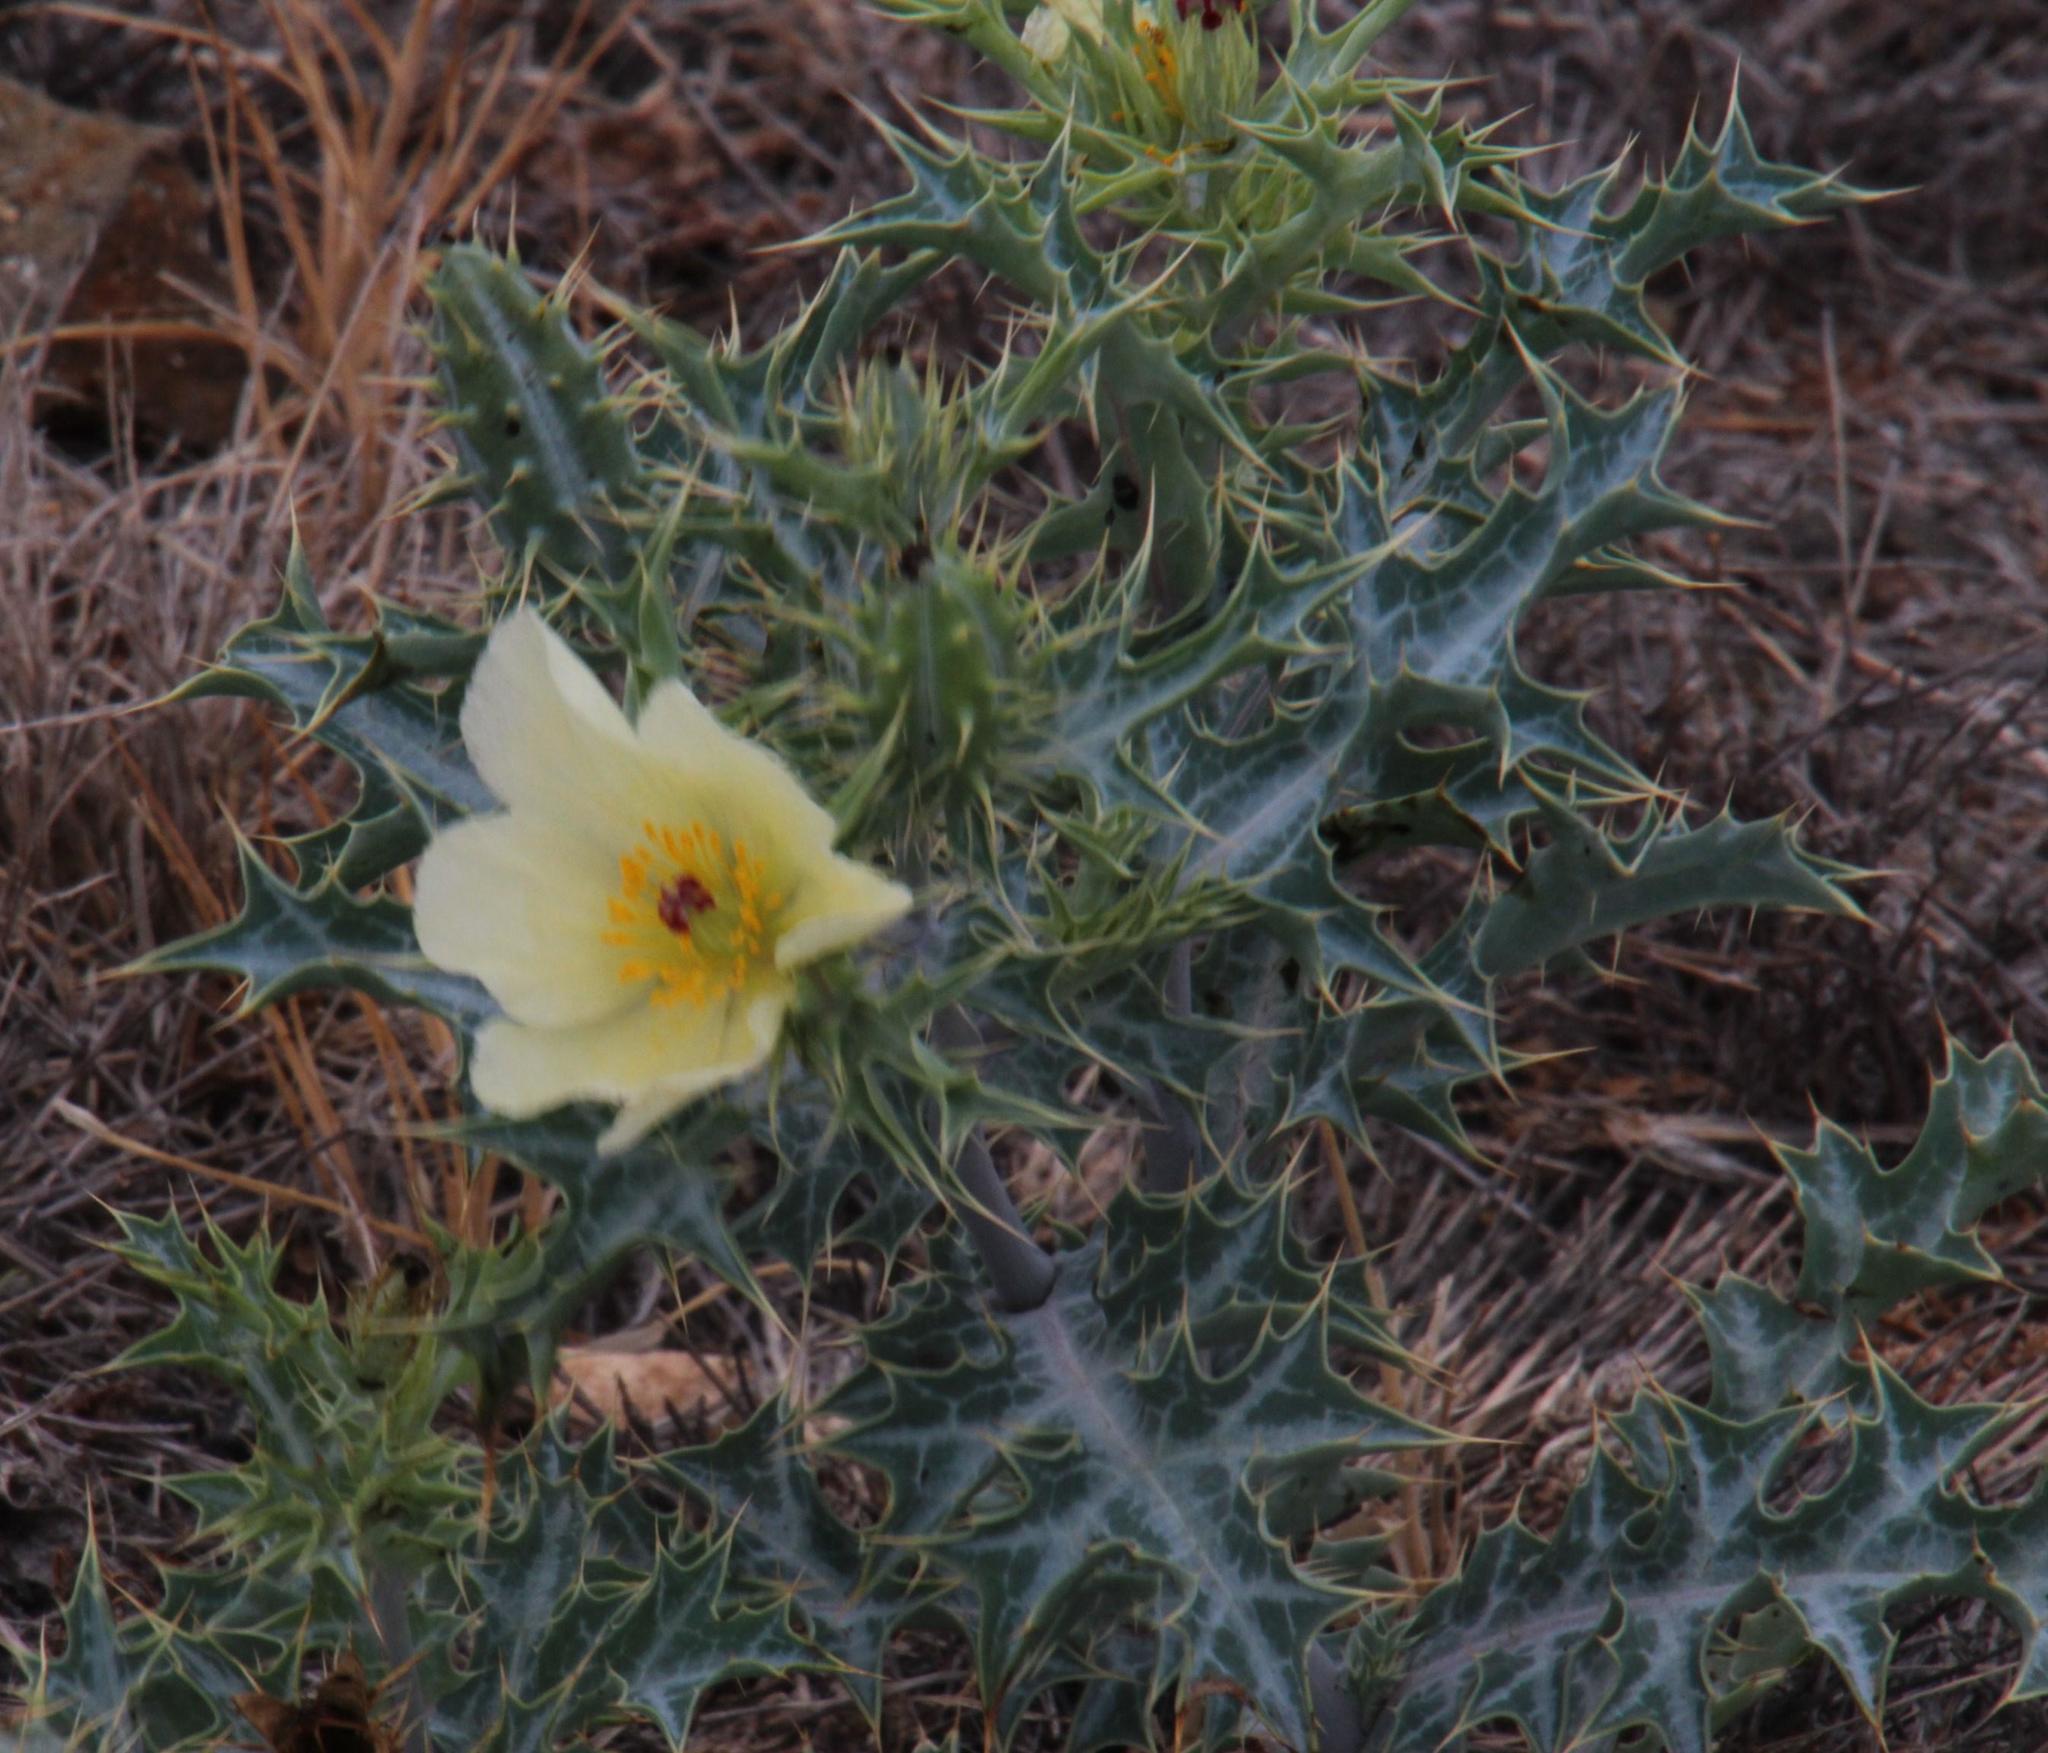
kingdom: Plantae
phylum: Tracheophyta
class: Magnoliopsida
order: Ranunculales
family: Papaveraceae
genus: Argemone
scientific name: Argemone ochroleuca
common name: White-flower mexican-poppy
